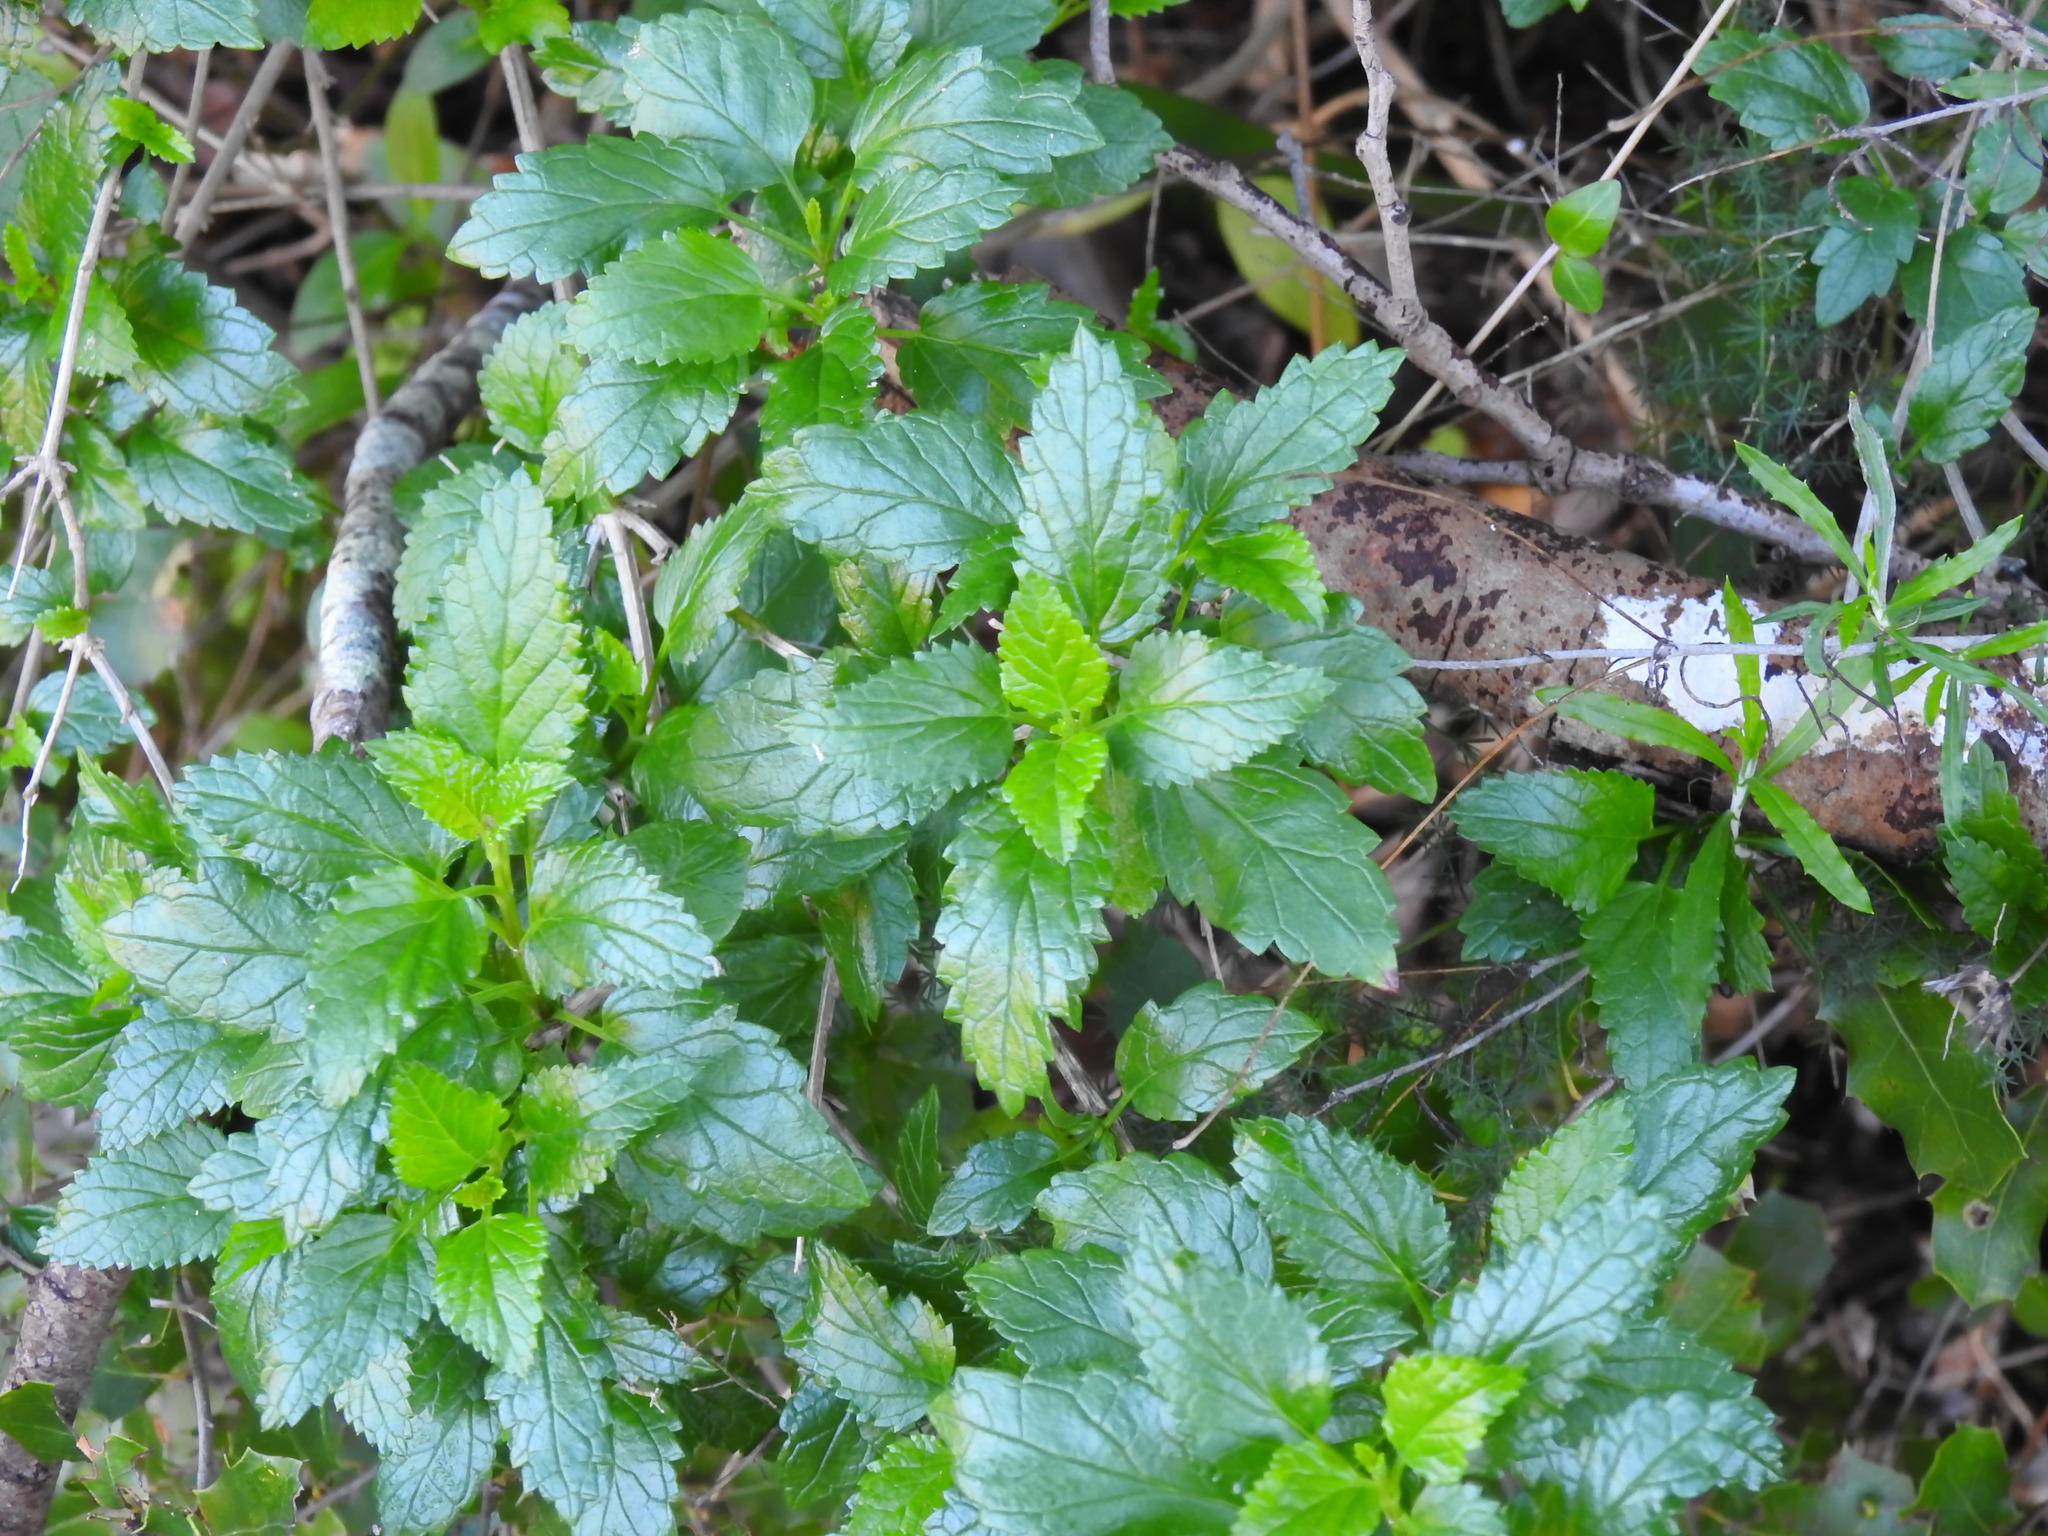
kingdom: Plantae
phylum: Tracheophyta
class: Magnoliopsida
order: Lamiales
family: Lamiaceae
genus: Prasium
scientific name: Prasium majus
